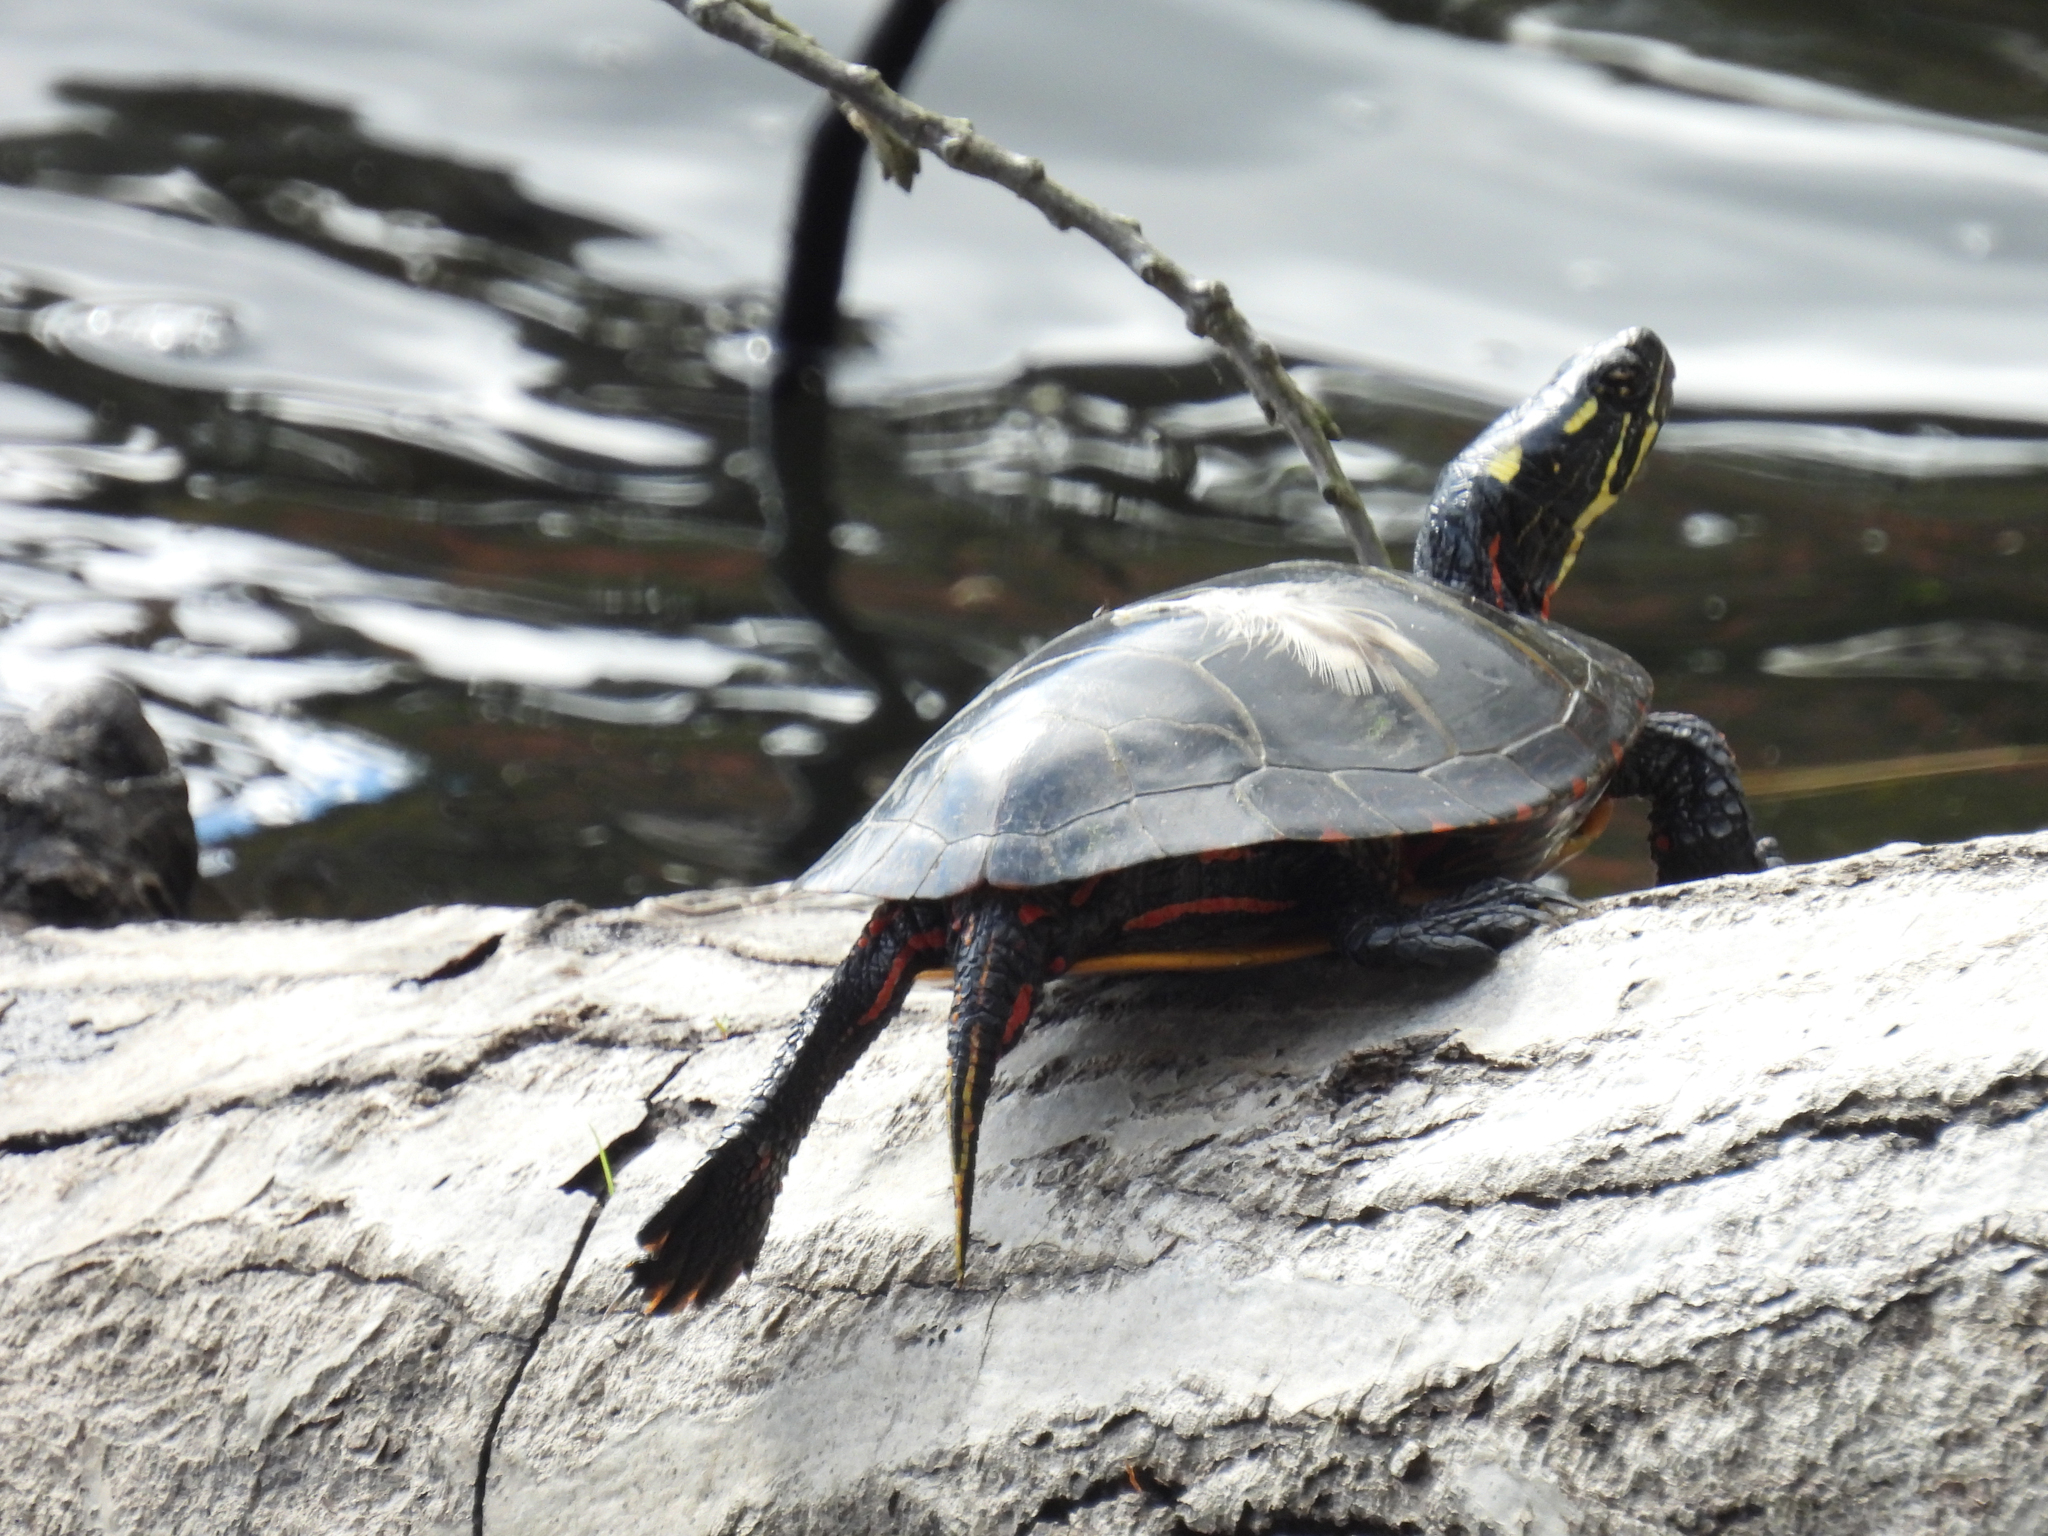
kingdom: Animalia
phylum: Chordata
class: Testudines
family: Emydidae
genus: Chrysemys
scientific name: Chrysemys picta
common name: Painted turtle
